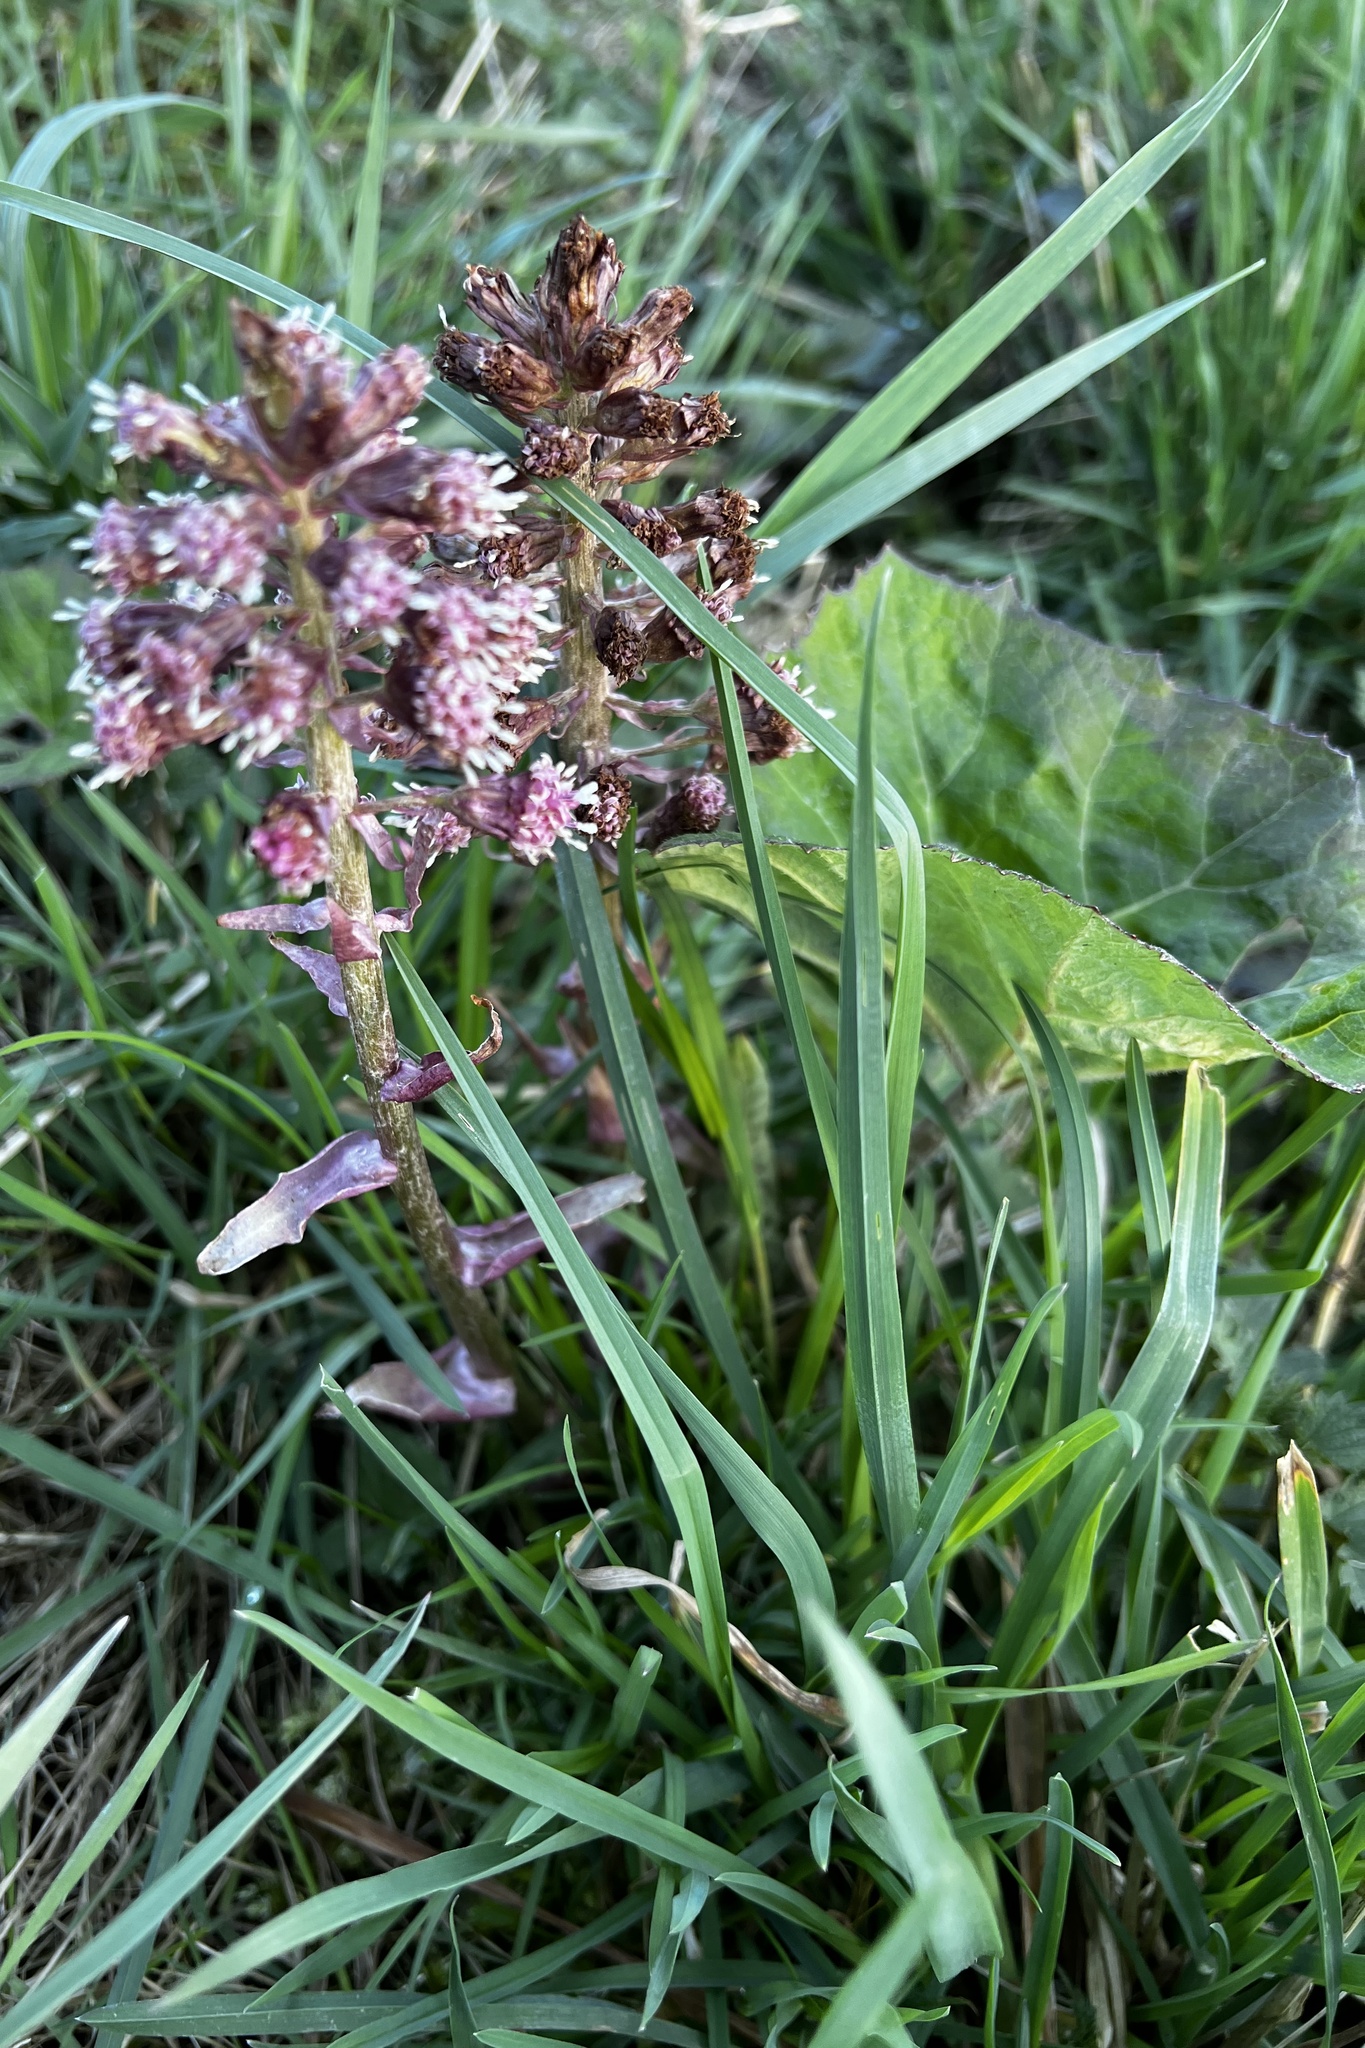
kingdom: Plantae
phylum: Tracheophyta
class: Magnoliopsida
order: Asterales
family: Asteraceae
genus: Petasites
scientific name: Petasites hybridus
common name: Butterbur
